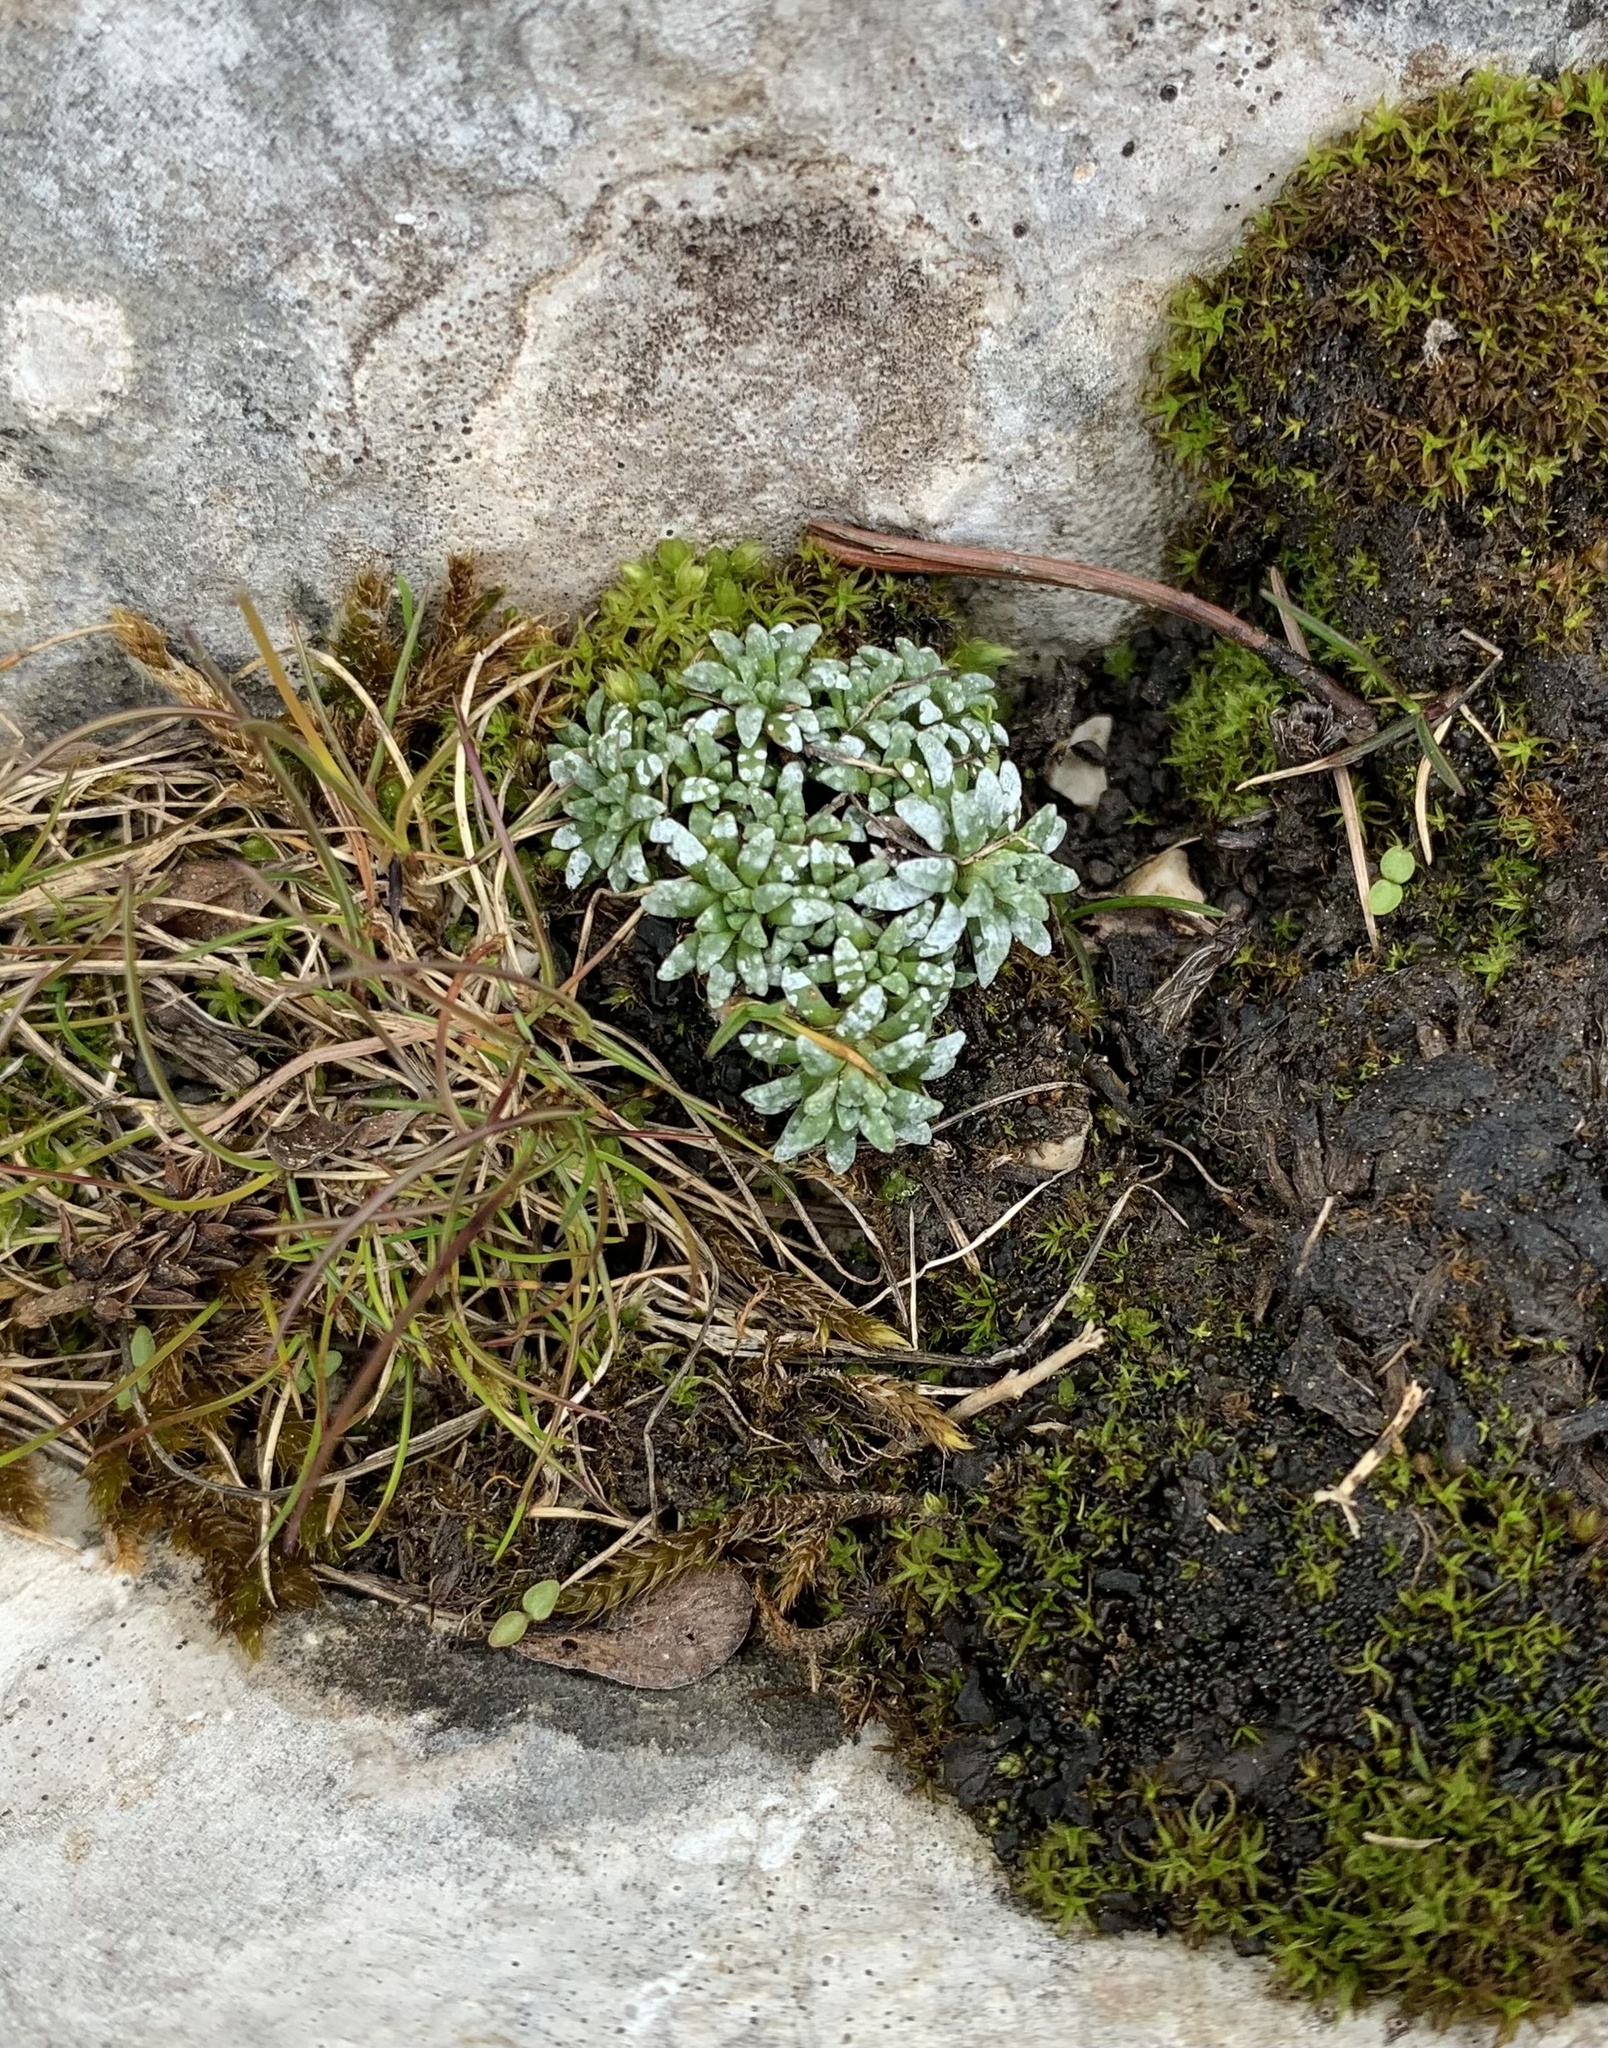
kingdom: Plantae
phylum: Tracheophyta
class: Magnoliopsida
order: Saxifragales
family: Saxifragaceae
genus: Saxifraga
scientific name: Saxifraga caesia
